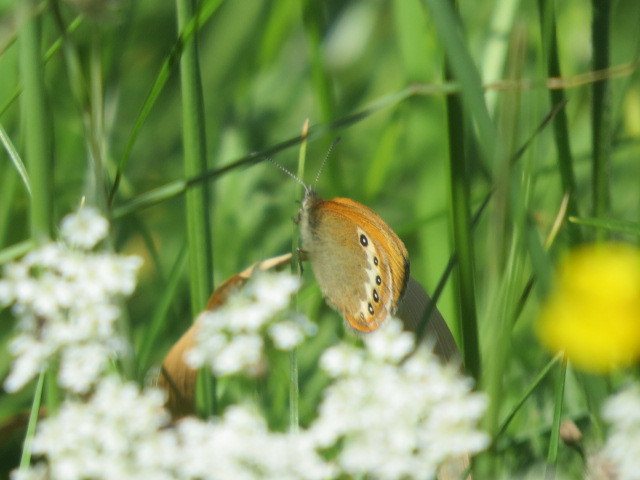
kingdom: Animalia
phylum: Arthropoda
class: Insecta
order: Lepidoptera
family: Nymphalidae
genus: Coenonympha
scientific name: Coenonympha
